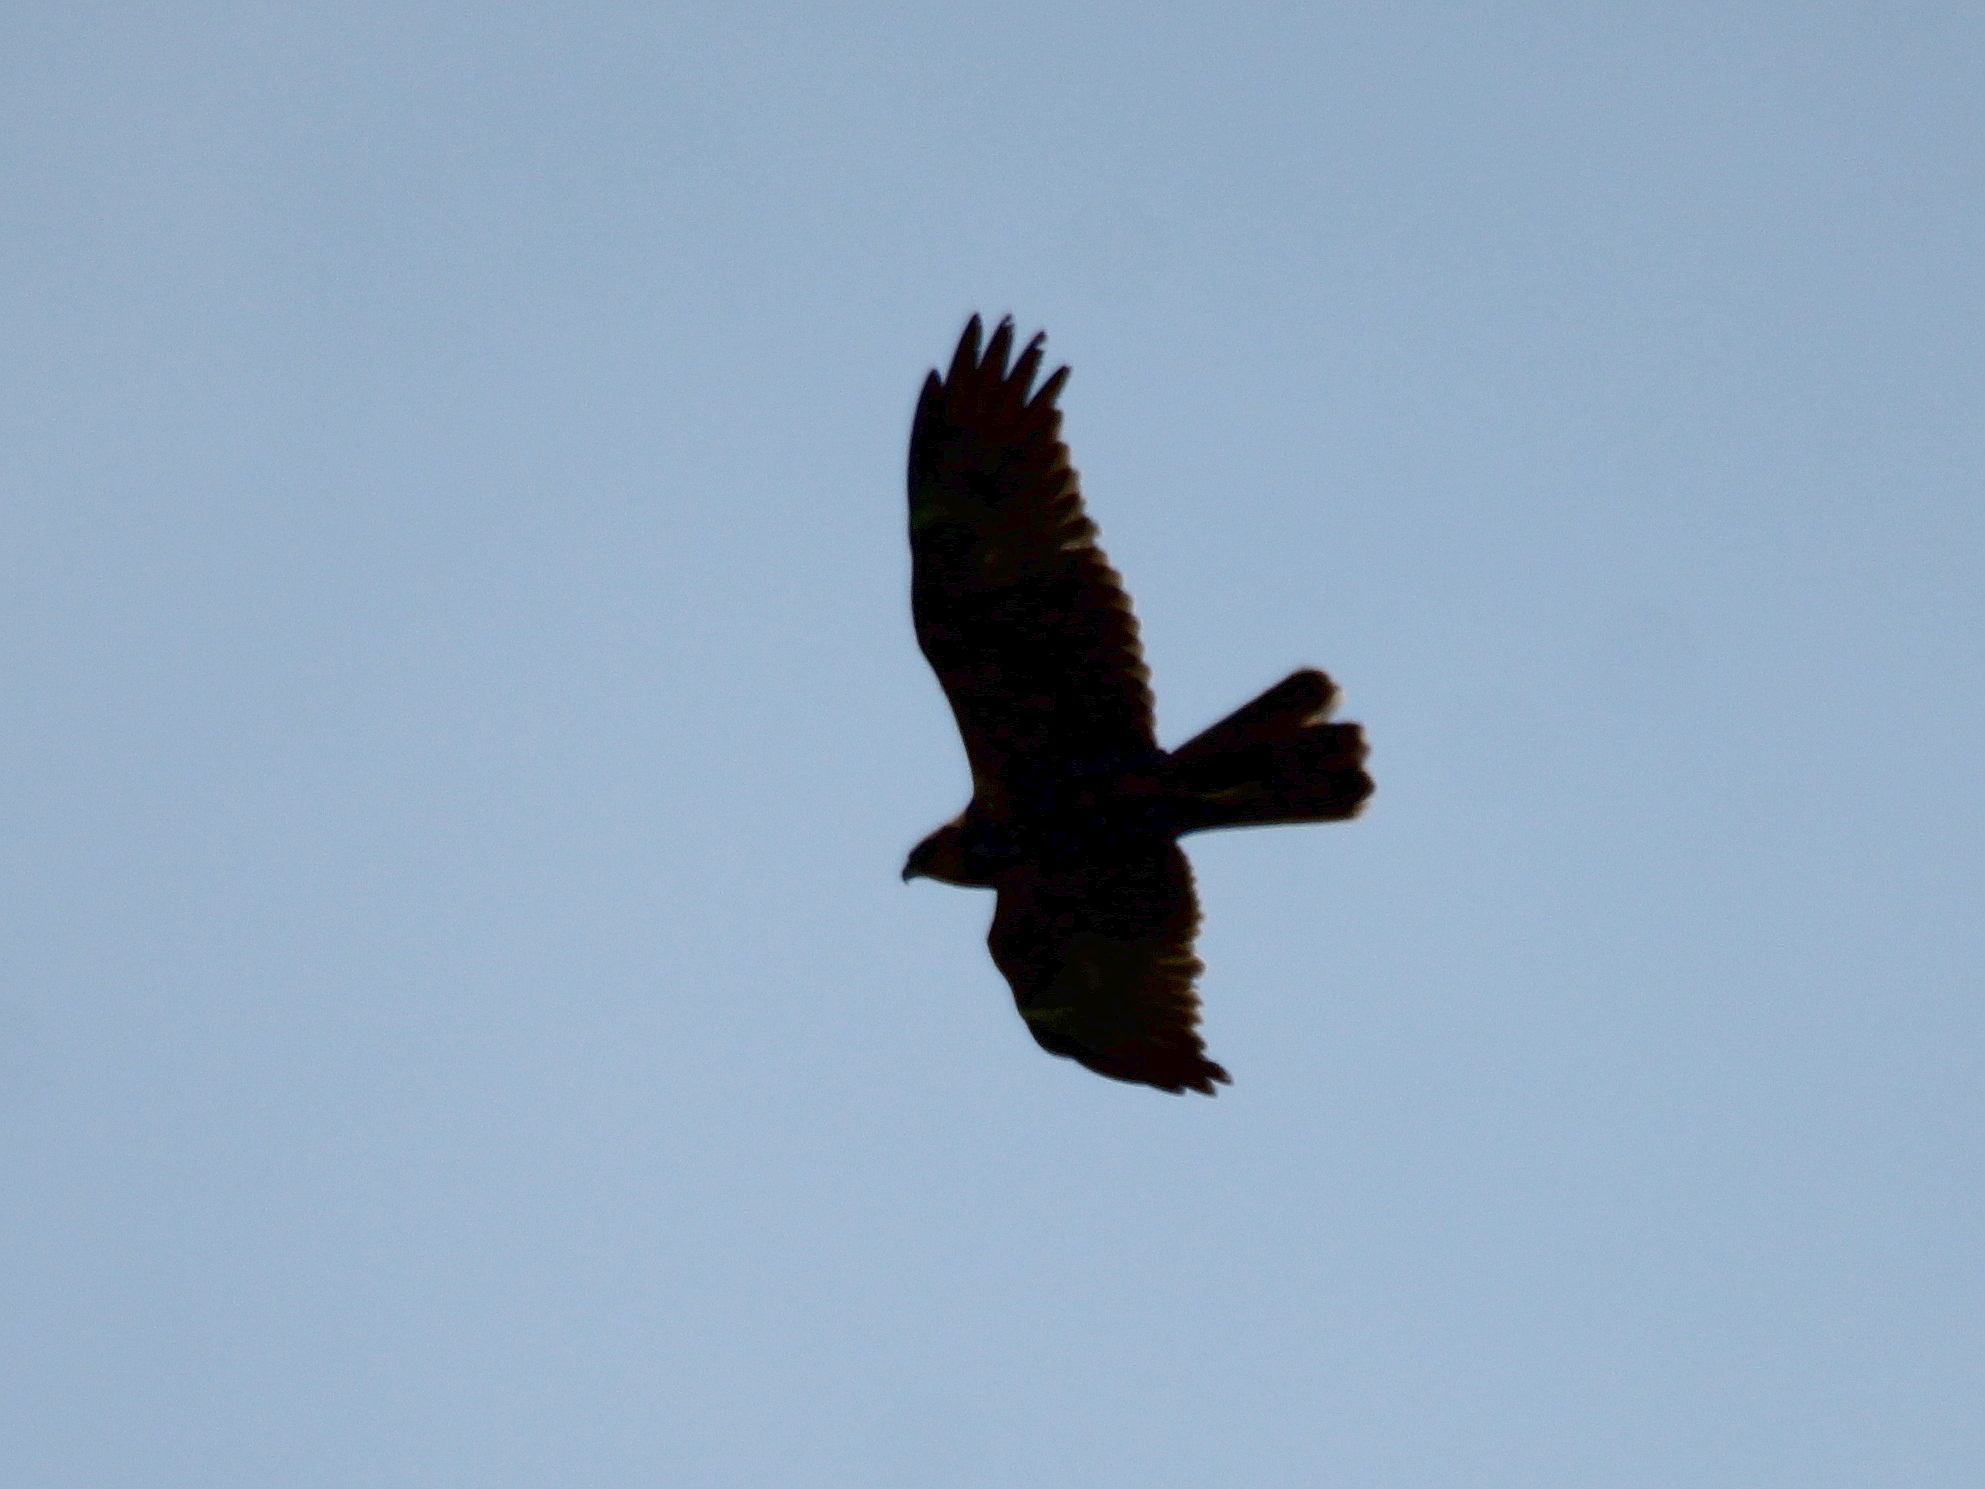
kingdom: Animalia
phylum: Chordata
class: Aves
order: Accipitriformes
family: Accipitridae
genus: Circus
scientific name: Circus aeruginosus
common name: Western marsh harrier
